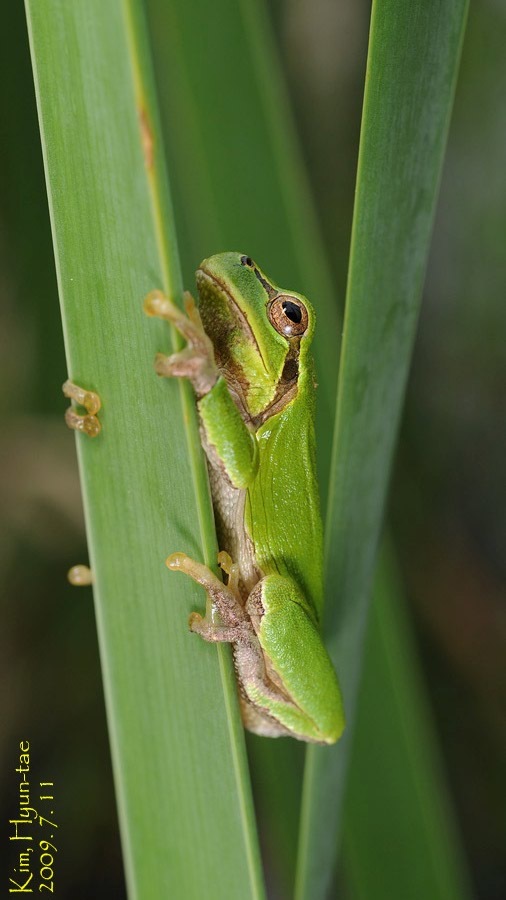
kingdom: Animalia
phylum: Chordata
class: Amphibia
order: Anura
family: Hylidae
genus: Dryophytes
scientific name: Dryophytes japonicus
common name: Japanese treefrog
